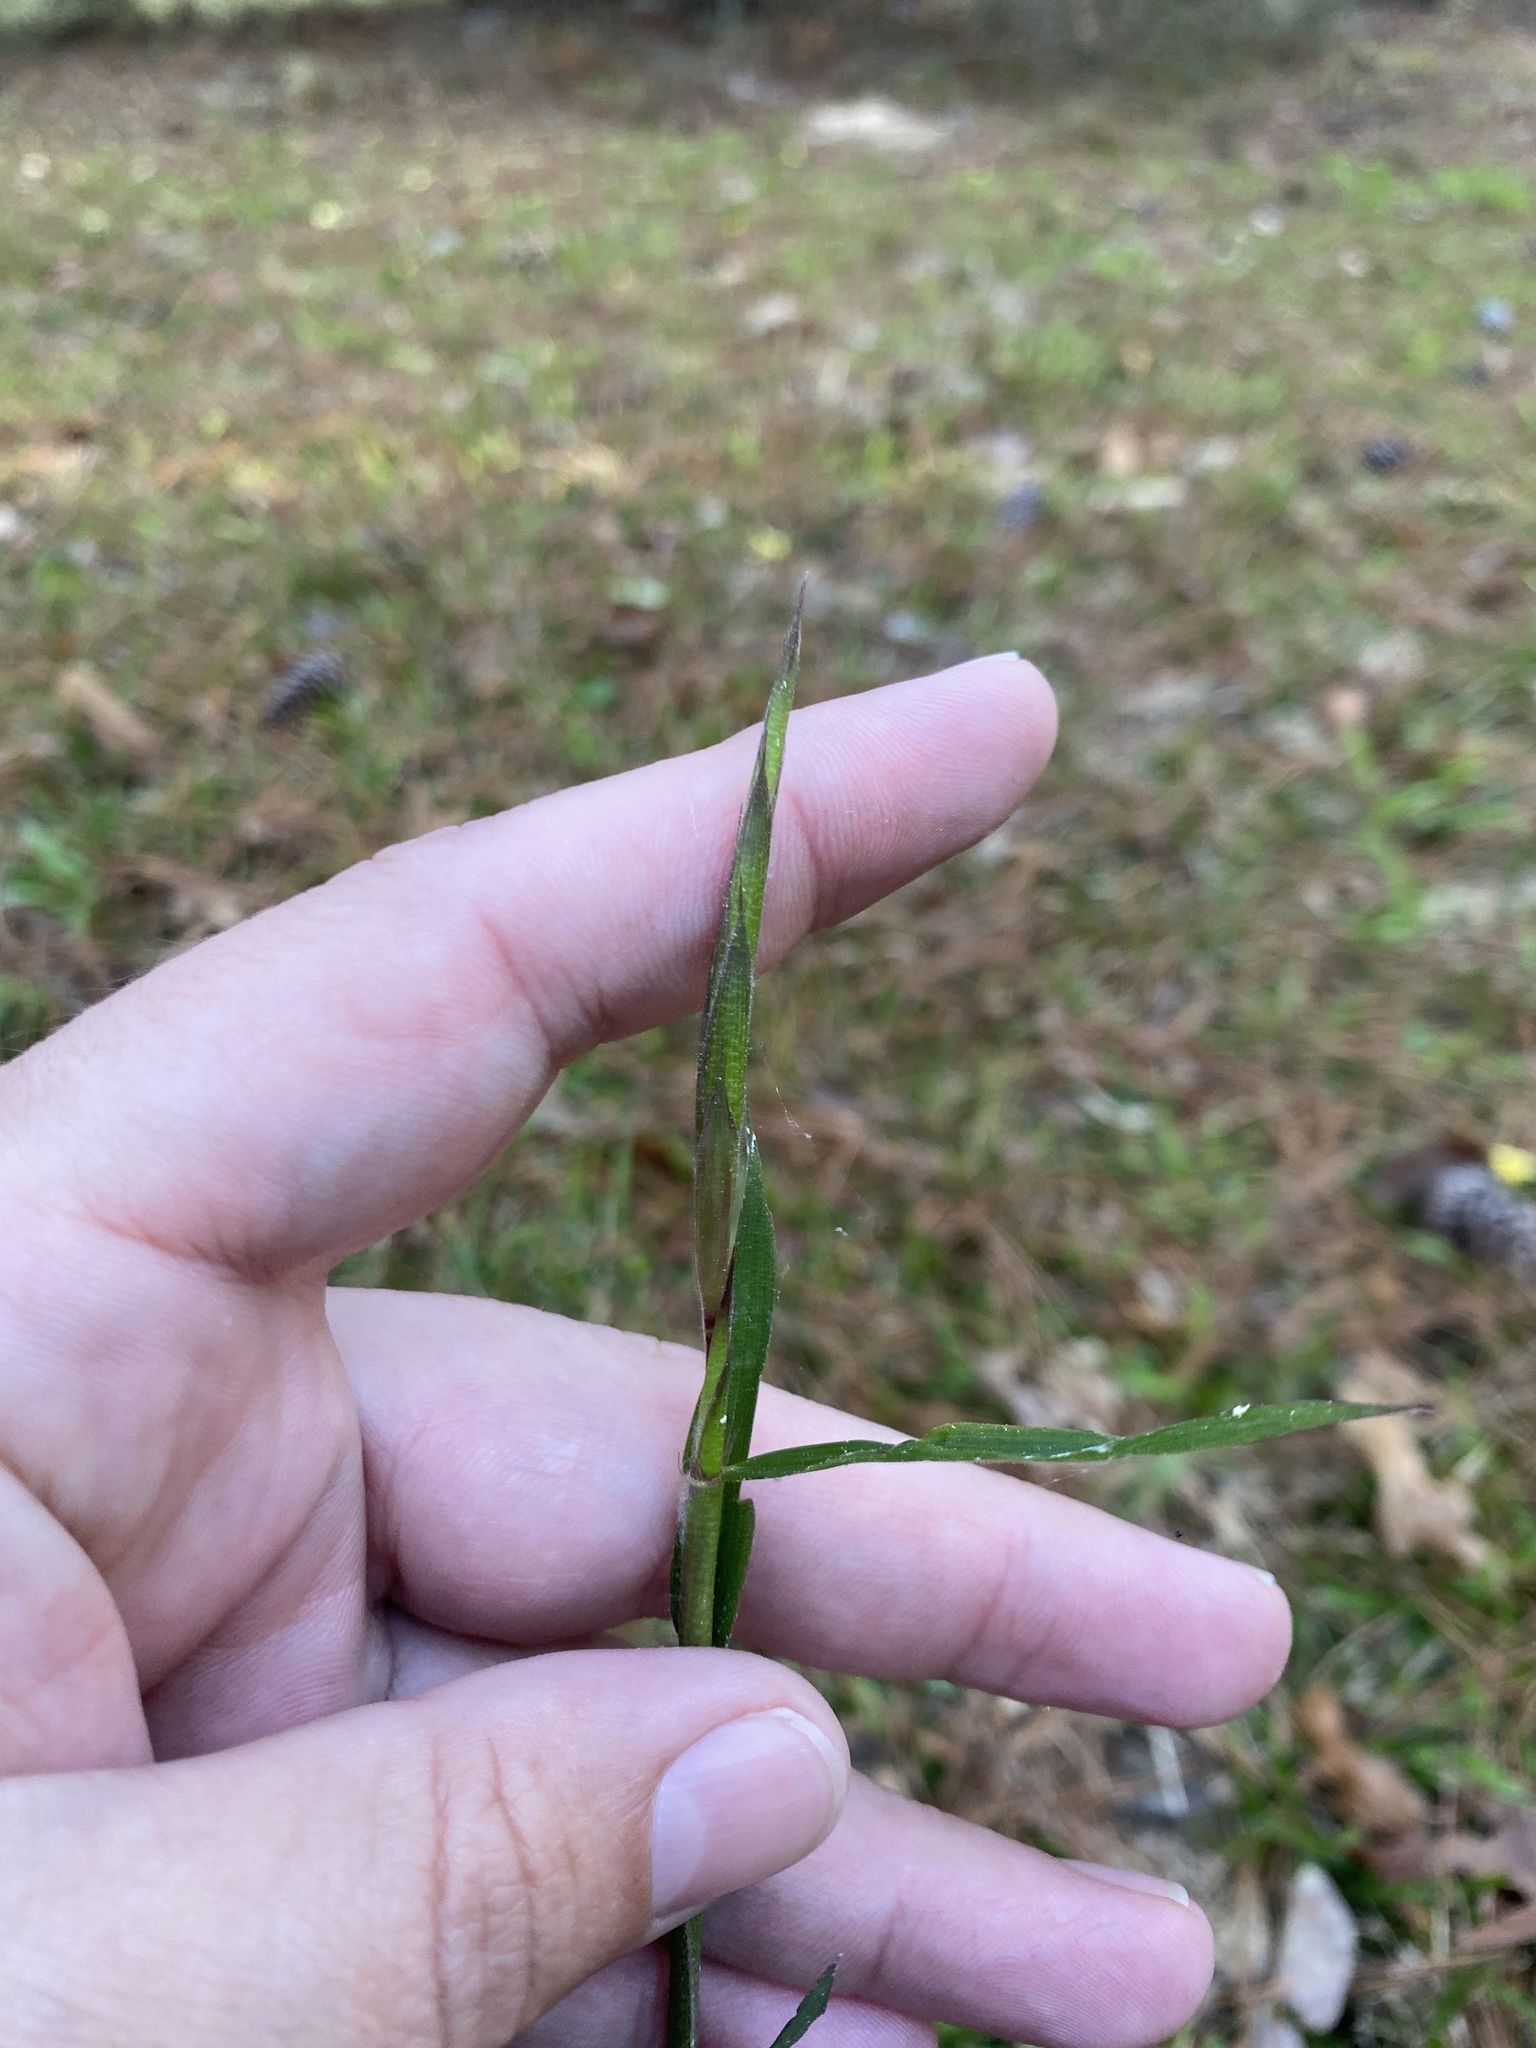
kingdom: Plantae
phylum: Tracheophyta
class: Liliopsida
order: Poales
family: Poaceae
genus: Arundinaria
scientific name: Arundinaria gigantea
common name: Giant cane
